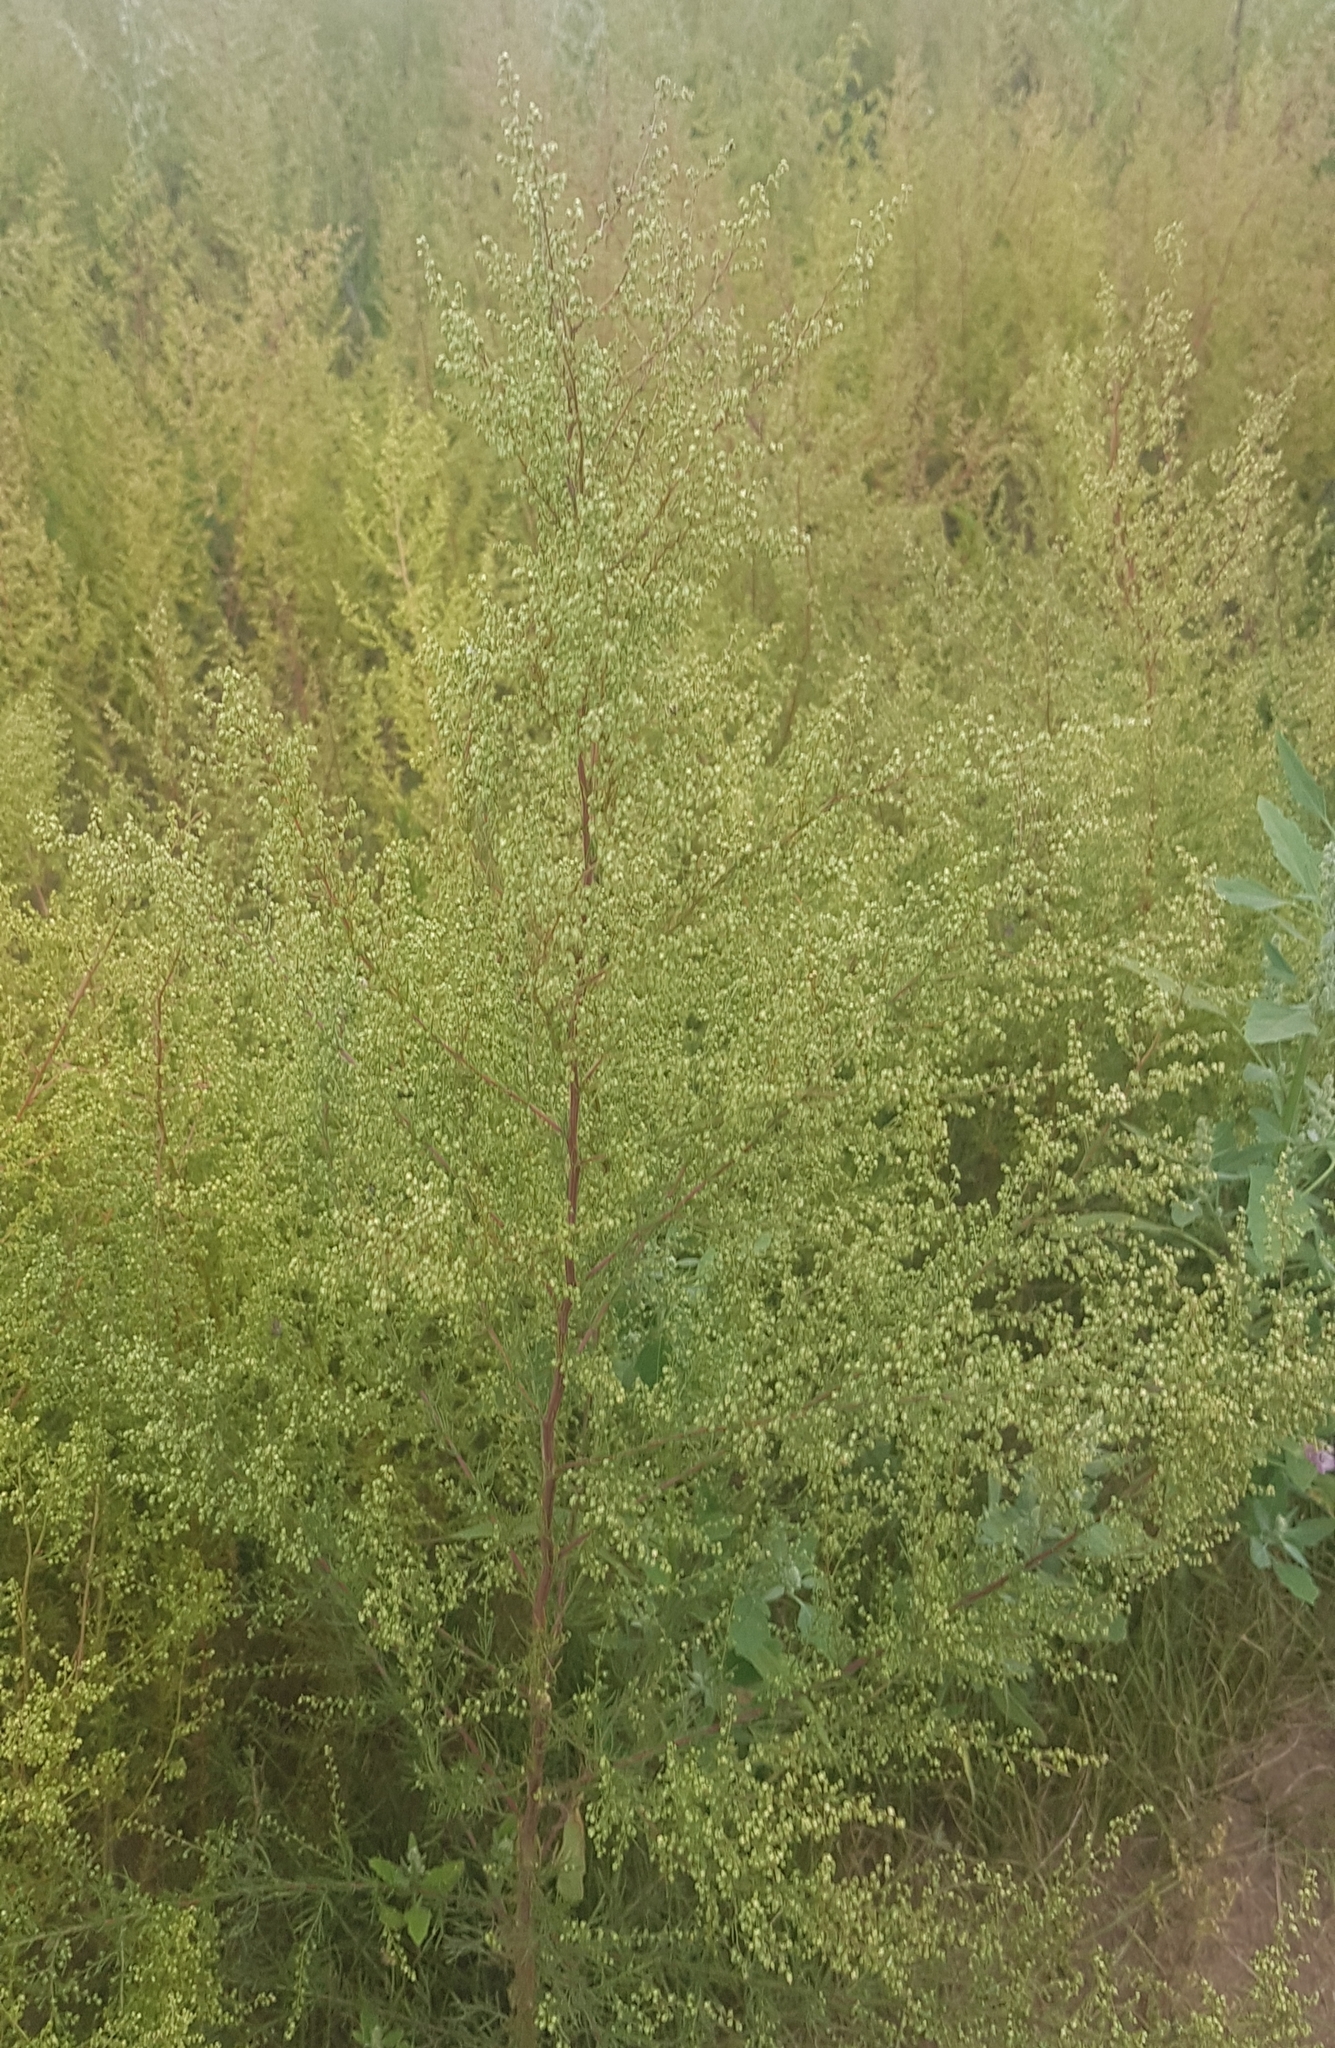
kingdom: Plantae
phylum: Tracheophyta
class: Magnoliopsida
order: Asterales
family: Asteraceae
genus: Artemisia
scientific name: Artemisia scoparia
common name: Redstem wormwood
